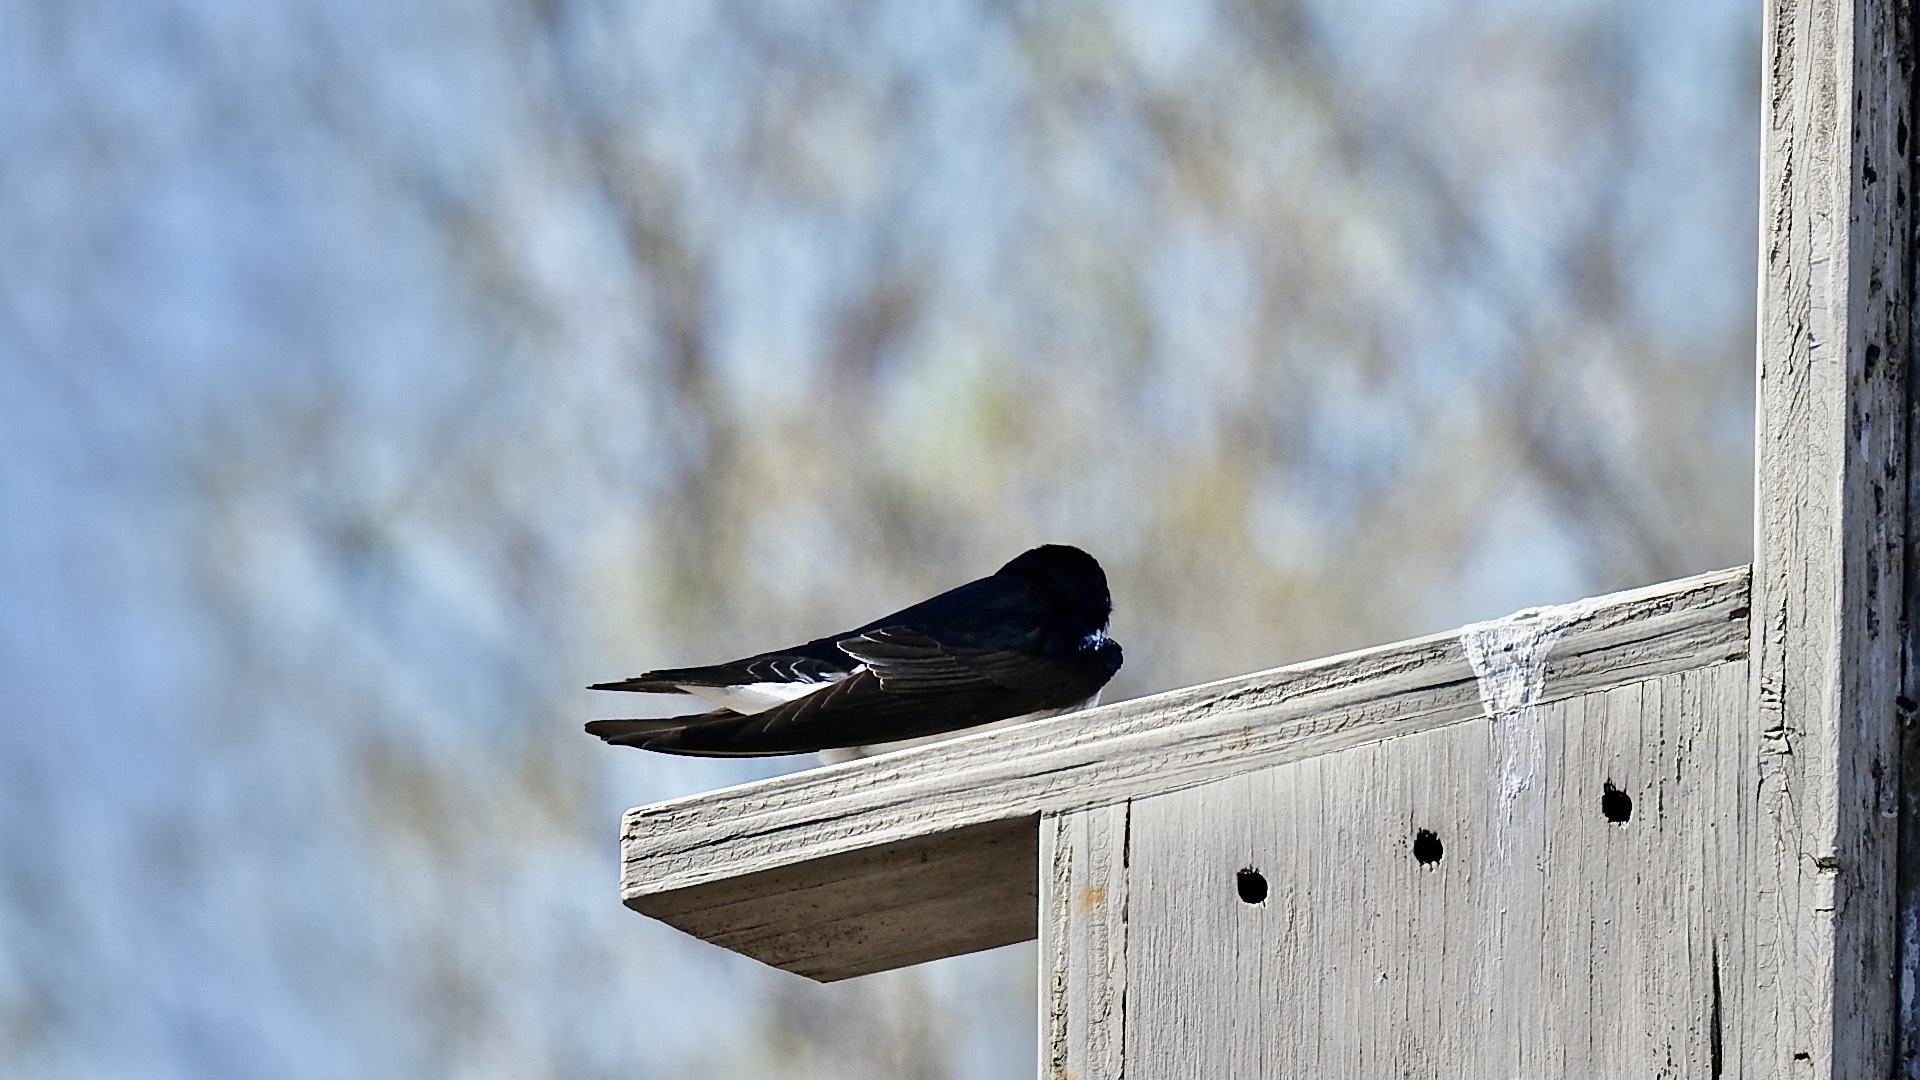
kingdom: Animalia
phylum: Chordata
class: Aves
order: Passeriformes
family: Hirundinidae
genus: Tachycineta
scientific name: Tachycineta bicolor
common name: Tree swallow
